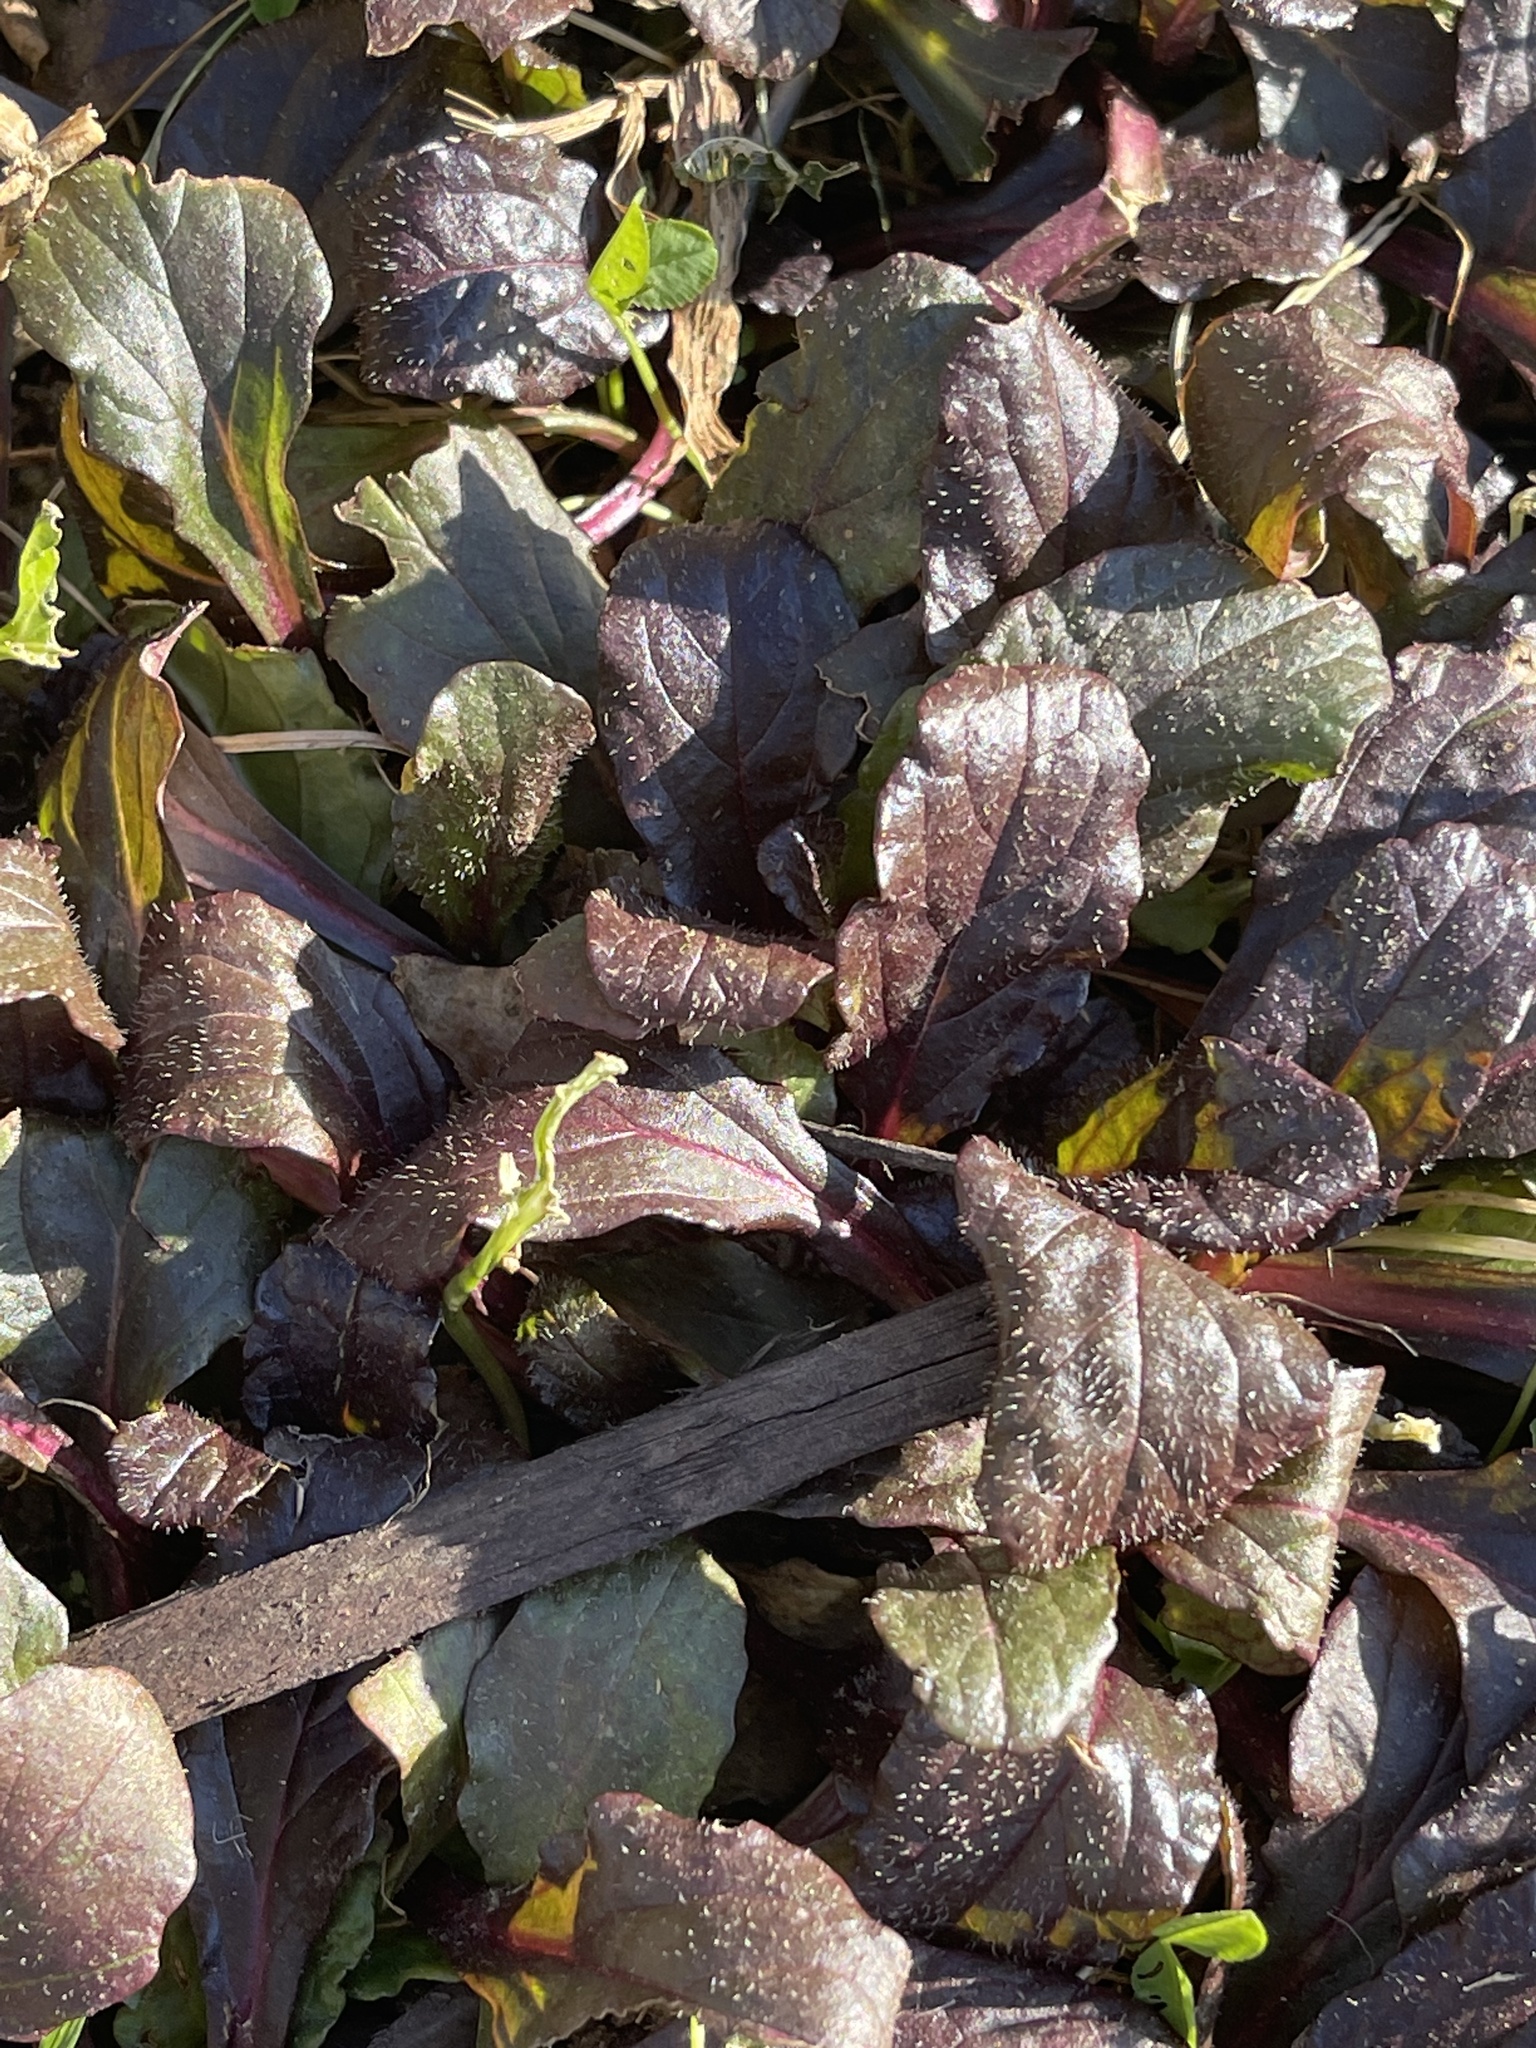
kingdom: Plantae
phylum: Tracheophyta
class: Magnoliopsida
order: Lamiales
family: Lamiaceae
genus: Ajuga
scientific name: Ajuga reptans
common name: Bugle
